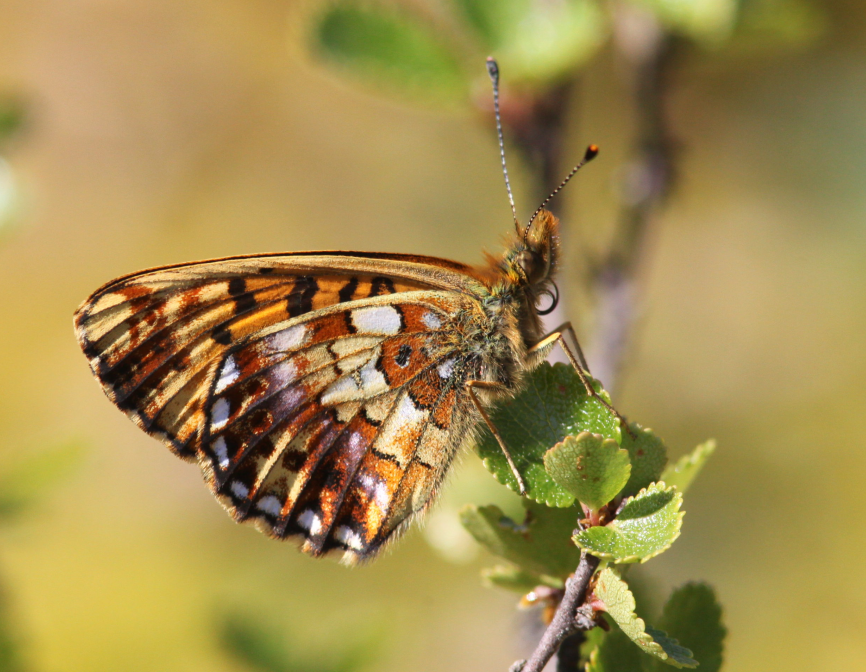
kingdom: Animalia
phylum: Arthropoda
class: Insecta
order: Lepidoptera
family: Nymphalidae
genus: Clossiana
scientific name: Clossiana angarensis
